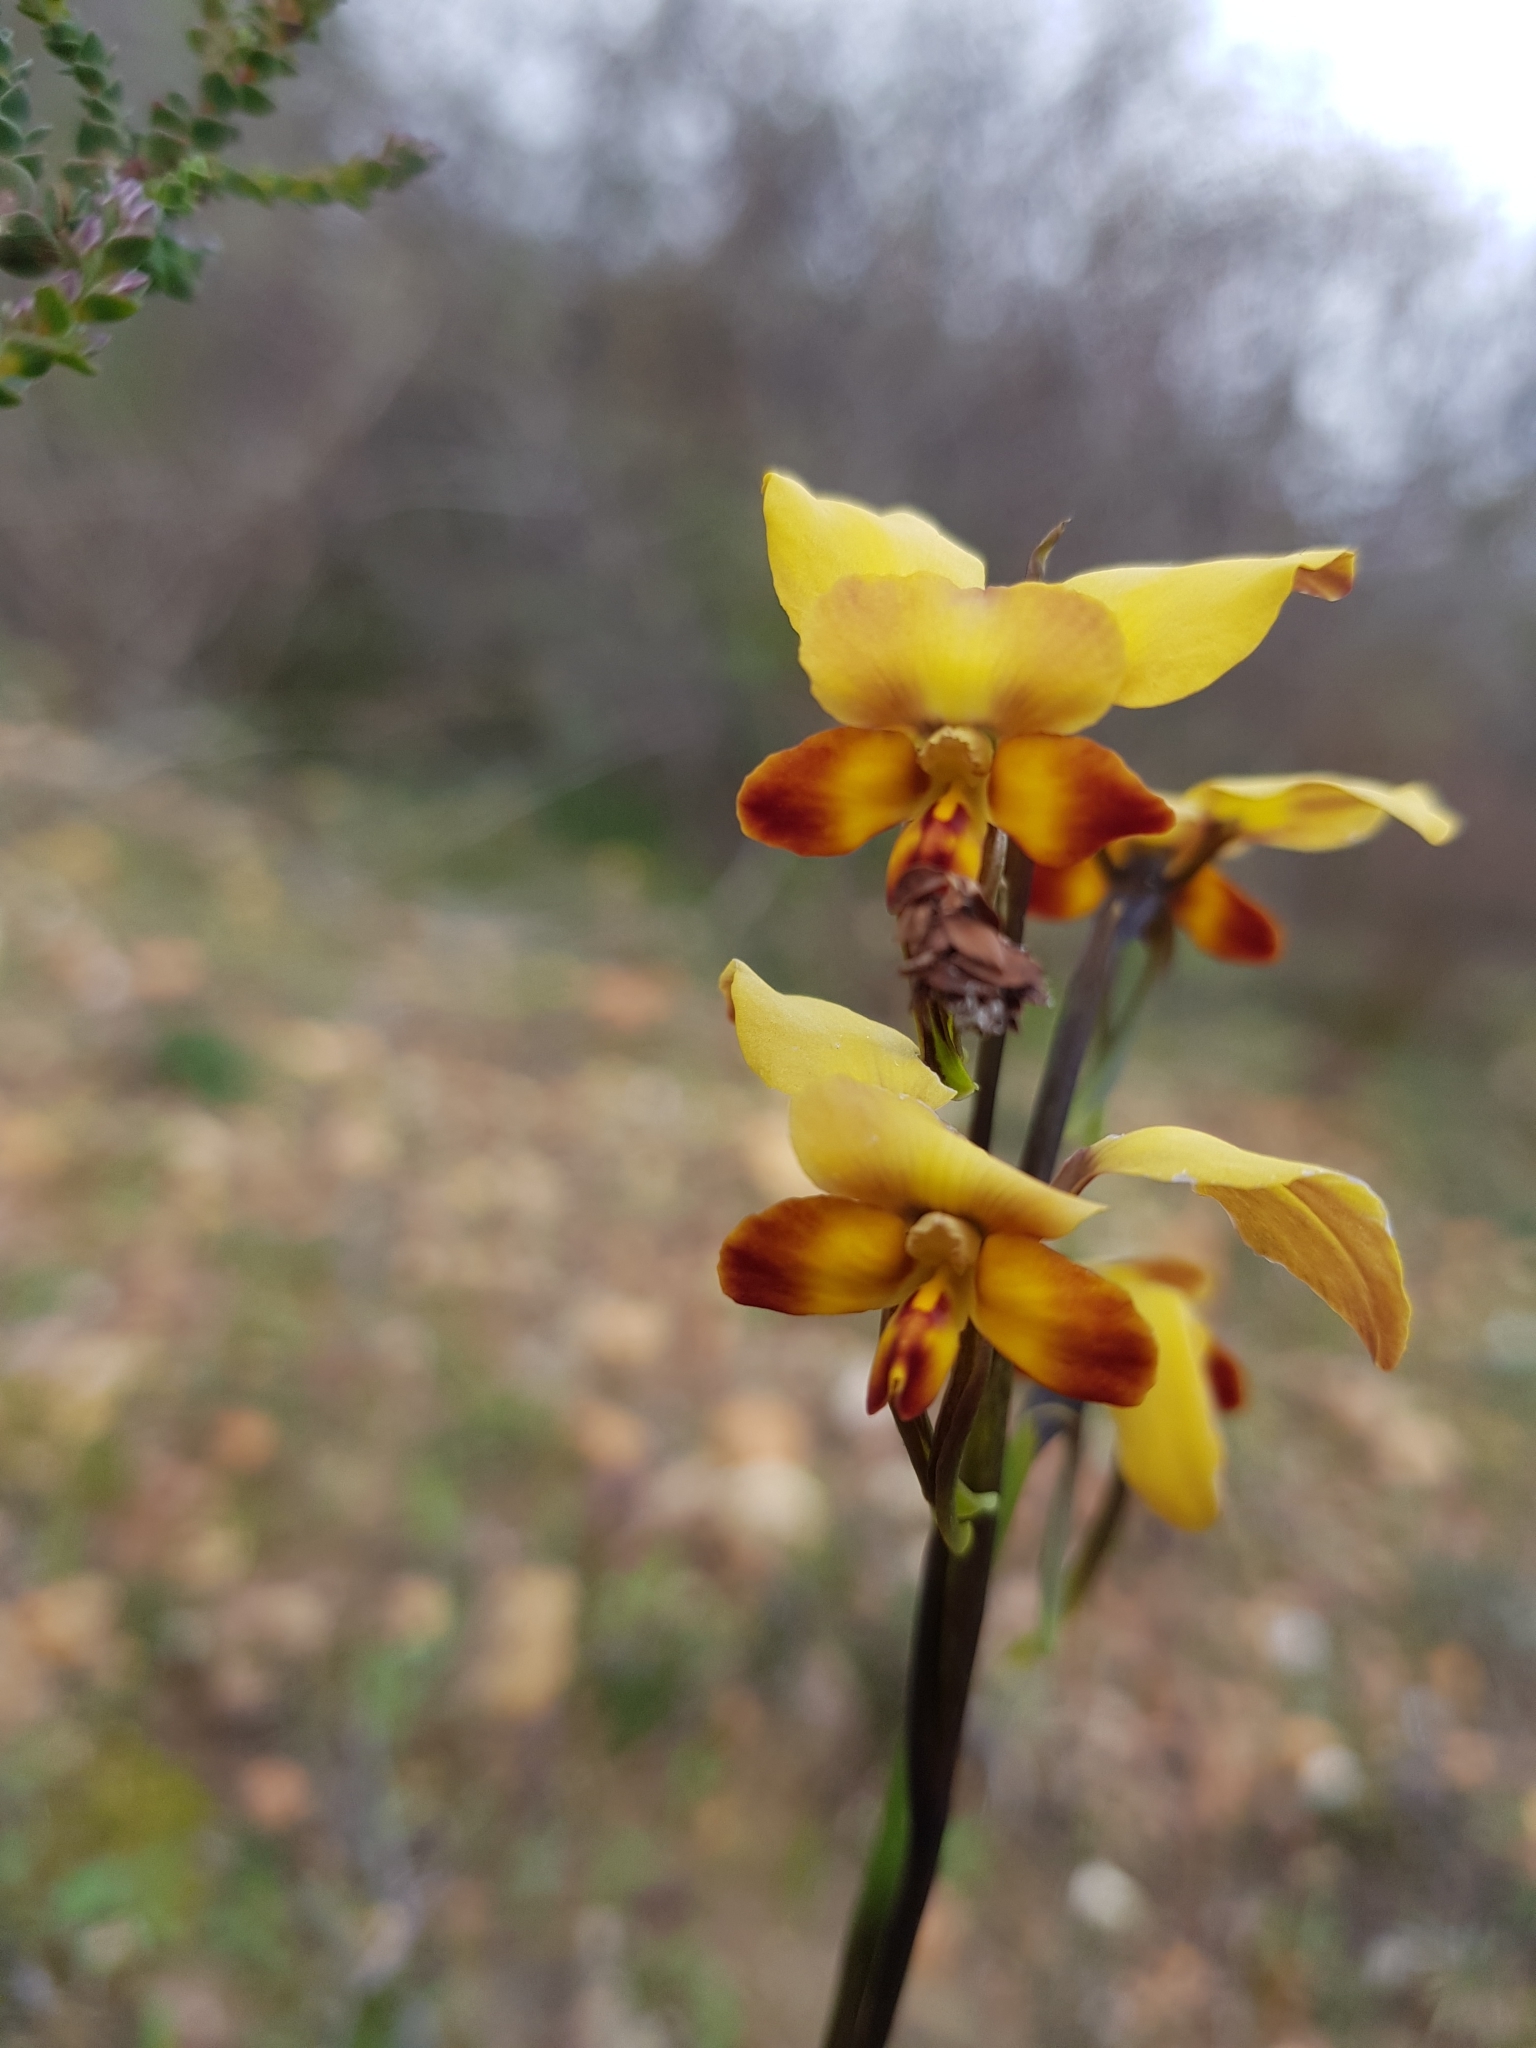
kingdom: Plantae
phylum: Tracheophyta
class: Liliopsida
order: Asparagales
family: Orchidaceae
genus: Diuris
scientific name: Diuris brumalis
